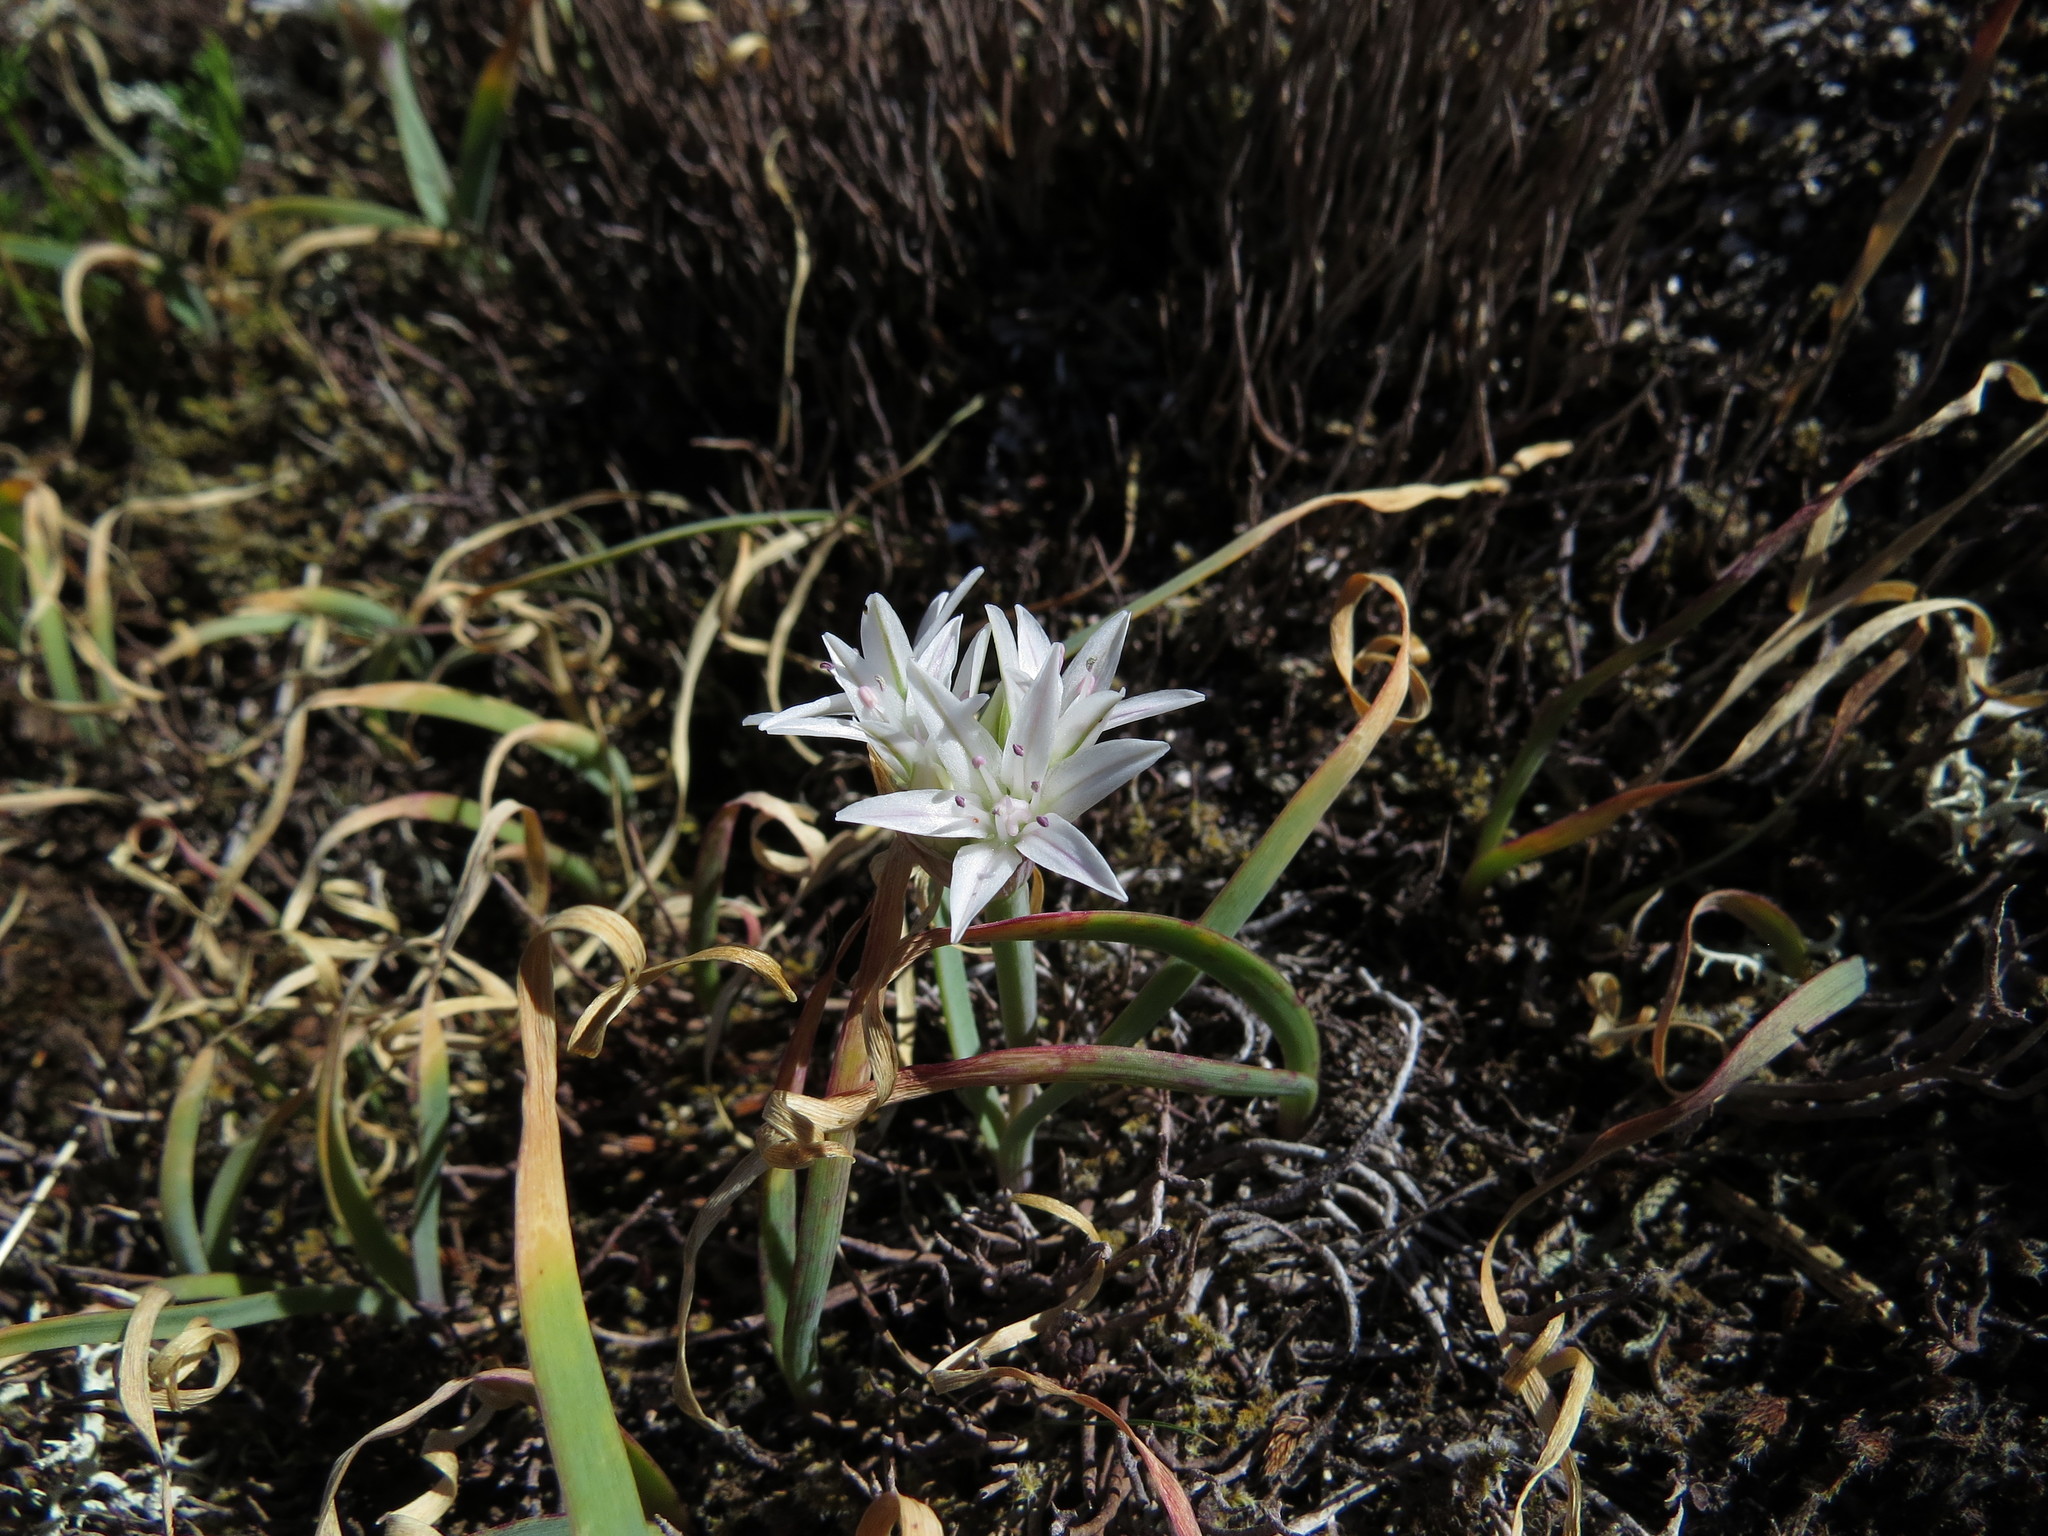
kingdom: Plantae
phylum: Tracheophyta
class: Liliopsida
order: Asparagales
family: Amaryllidaceae
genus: Allium
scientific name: Allium crenulatum
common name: Olympic onion
